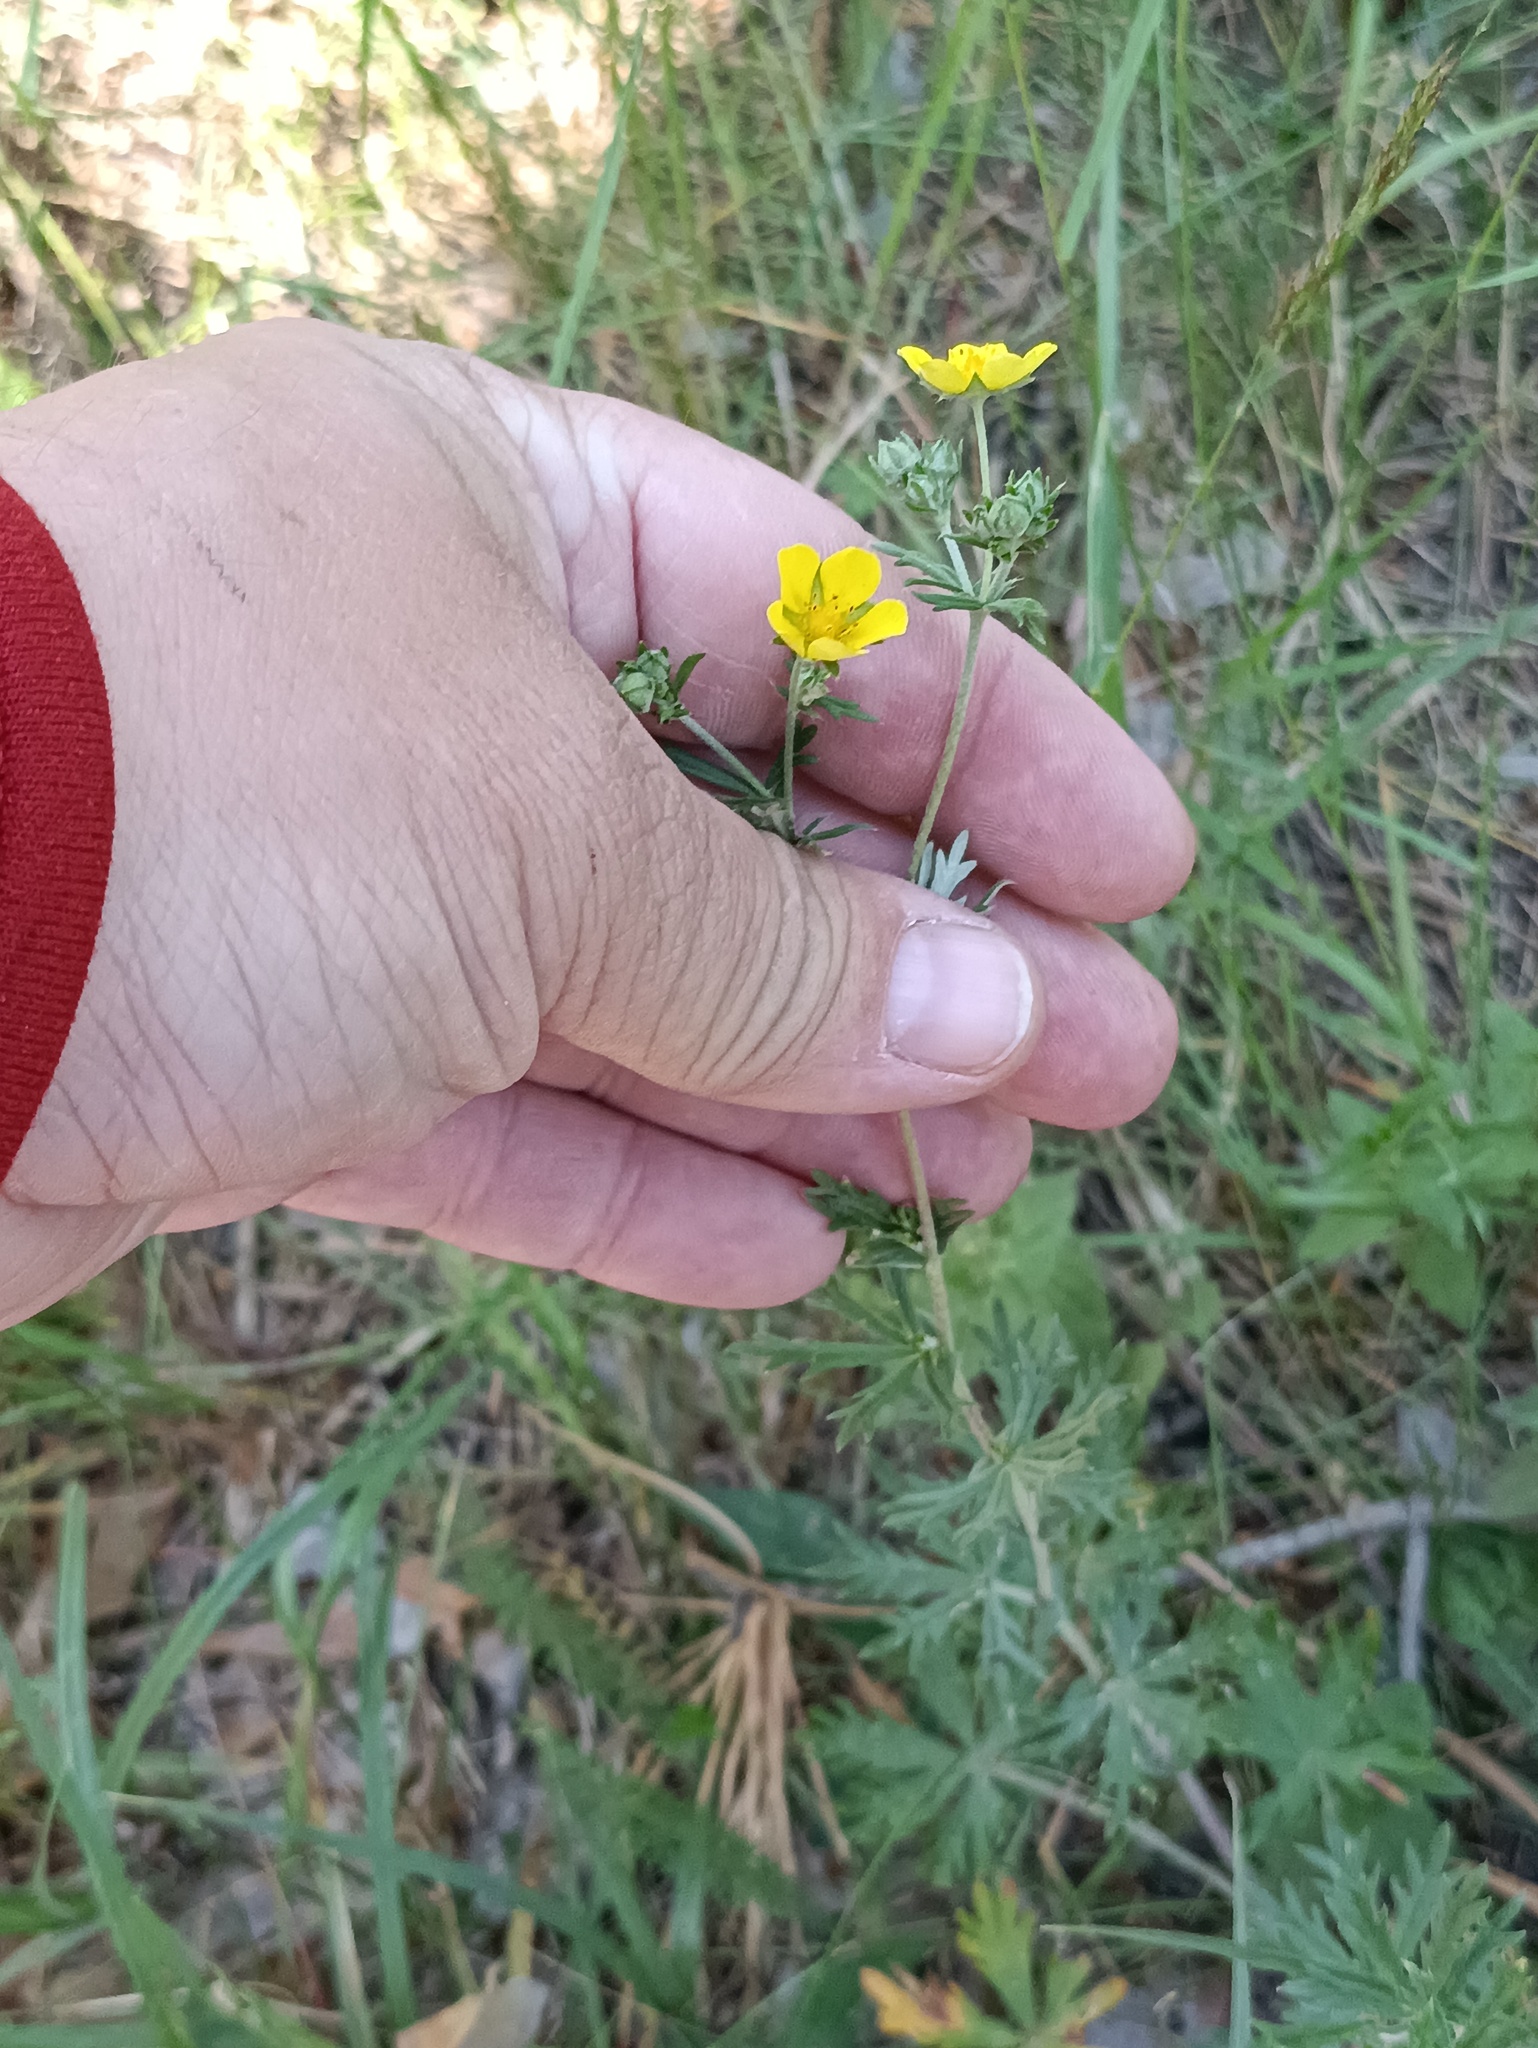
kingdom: Plantae
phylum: Tracheophyta
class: Magnoliopsida
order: Rosales
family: Rosaceae
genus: Potentilla
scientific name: Potentilla argentea
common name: Hoary cinquefoil
